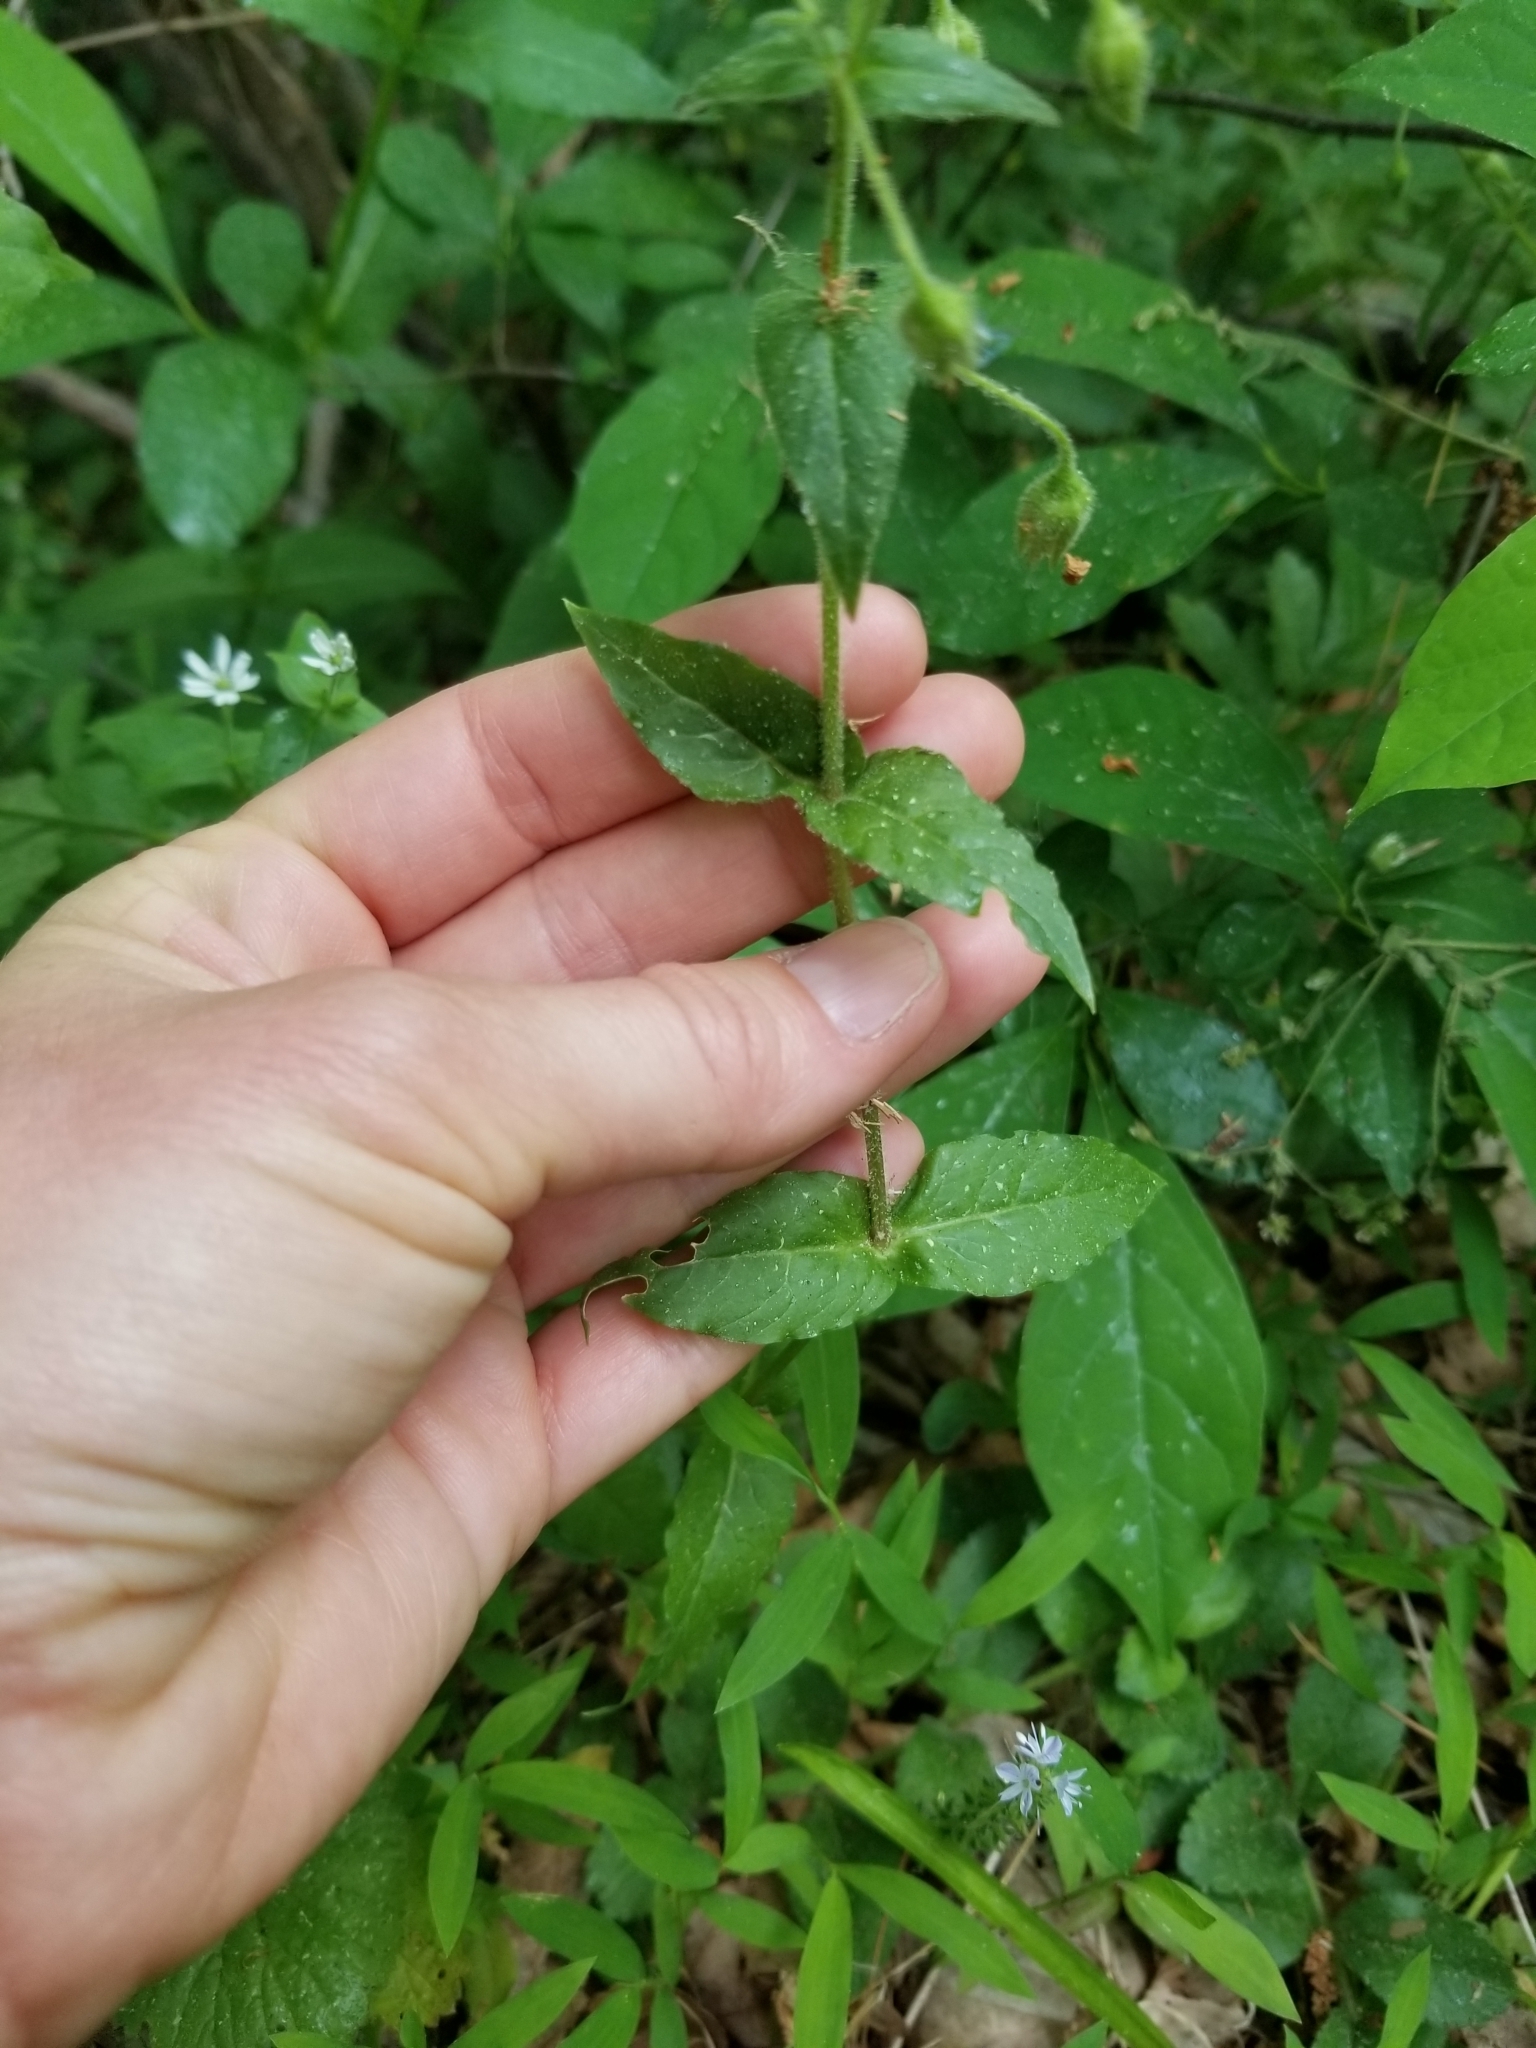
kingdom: Plantae
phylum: Tracheophyta
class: Magnoliopsida
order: Caryophyllales
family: Caryophyllaceae
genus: Stellaria
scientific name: Stellaria aquatica
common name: Water chickweed
